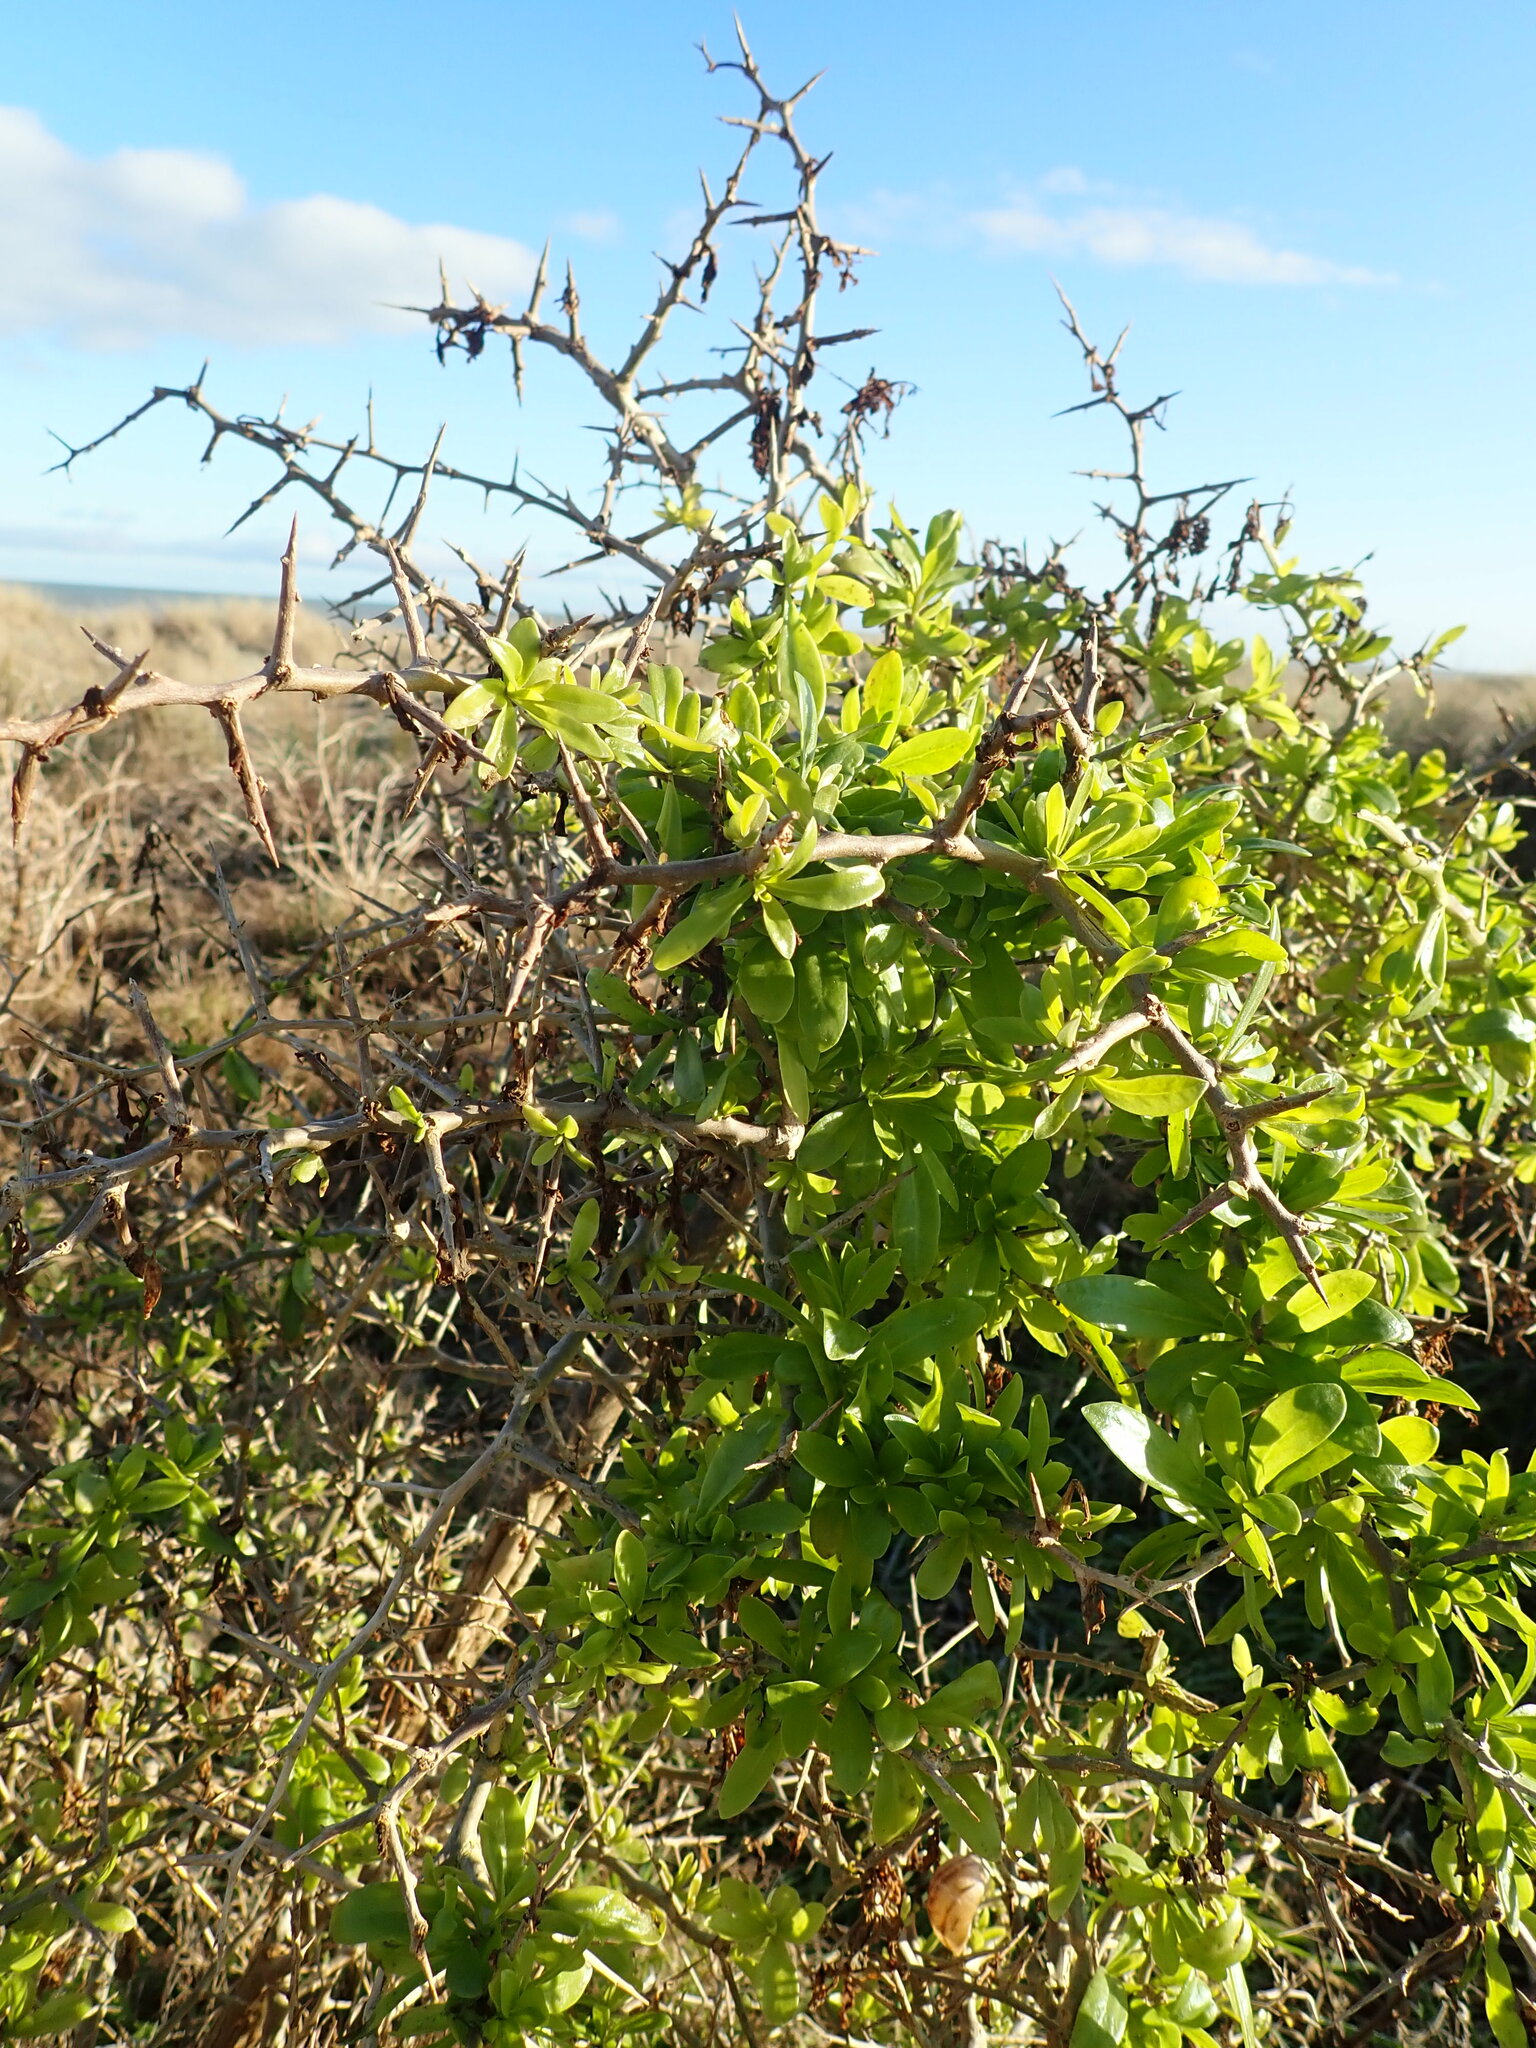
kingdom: Plantae
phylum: Tracheophyta
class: Magnoliopsida
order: Solanales
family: Solanaceae
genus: Lycium
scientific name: Lycium ferocissimum
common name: African boxthorn
